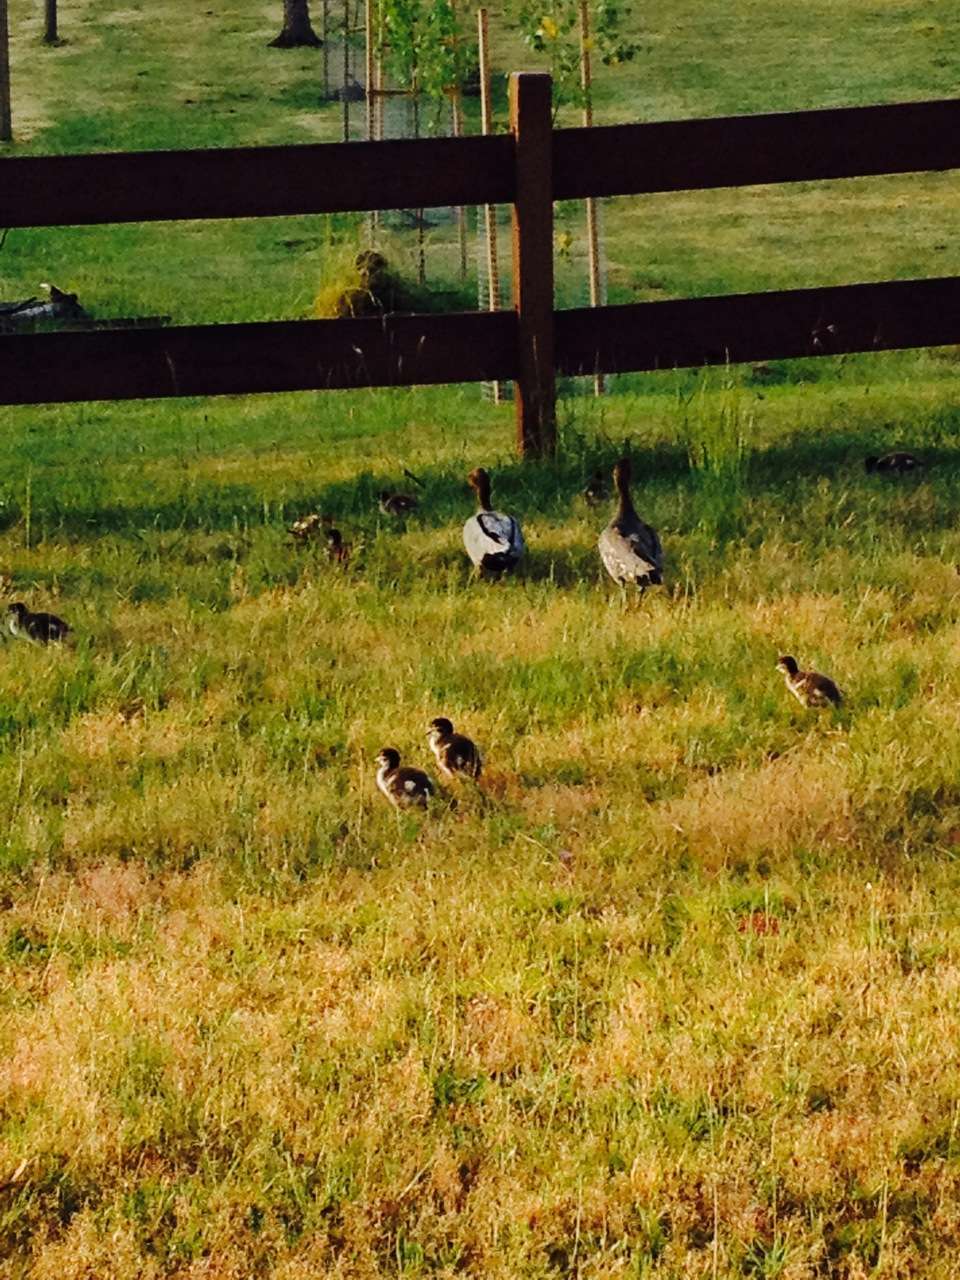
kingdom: Animalia
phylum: Chordata
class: Aves
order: Anseriformes
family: Anatidae
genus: Chenonetta
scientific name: Chenonetta jubata
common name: Maned duck
